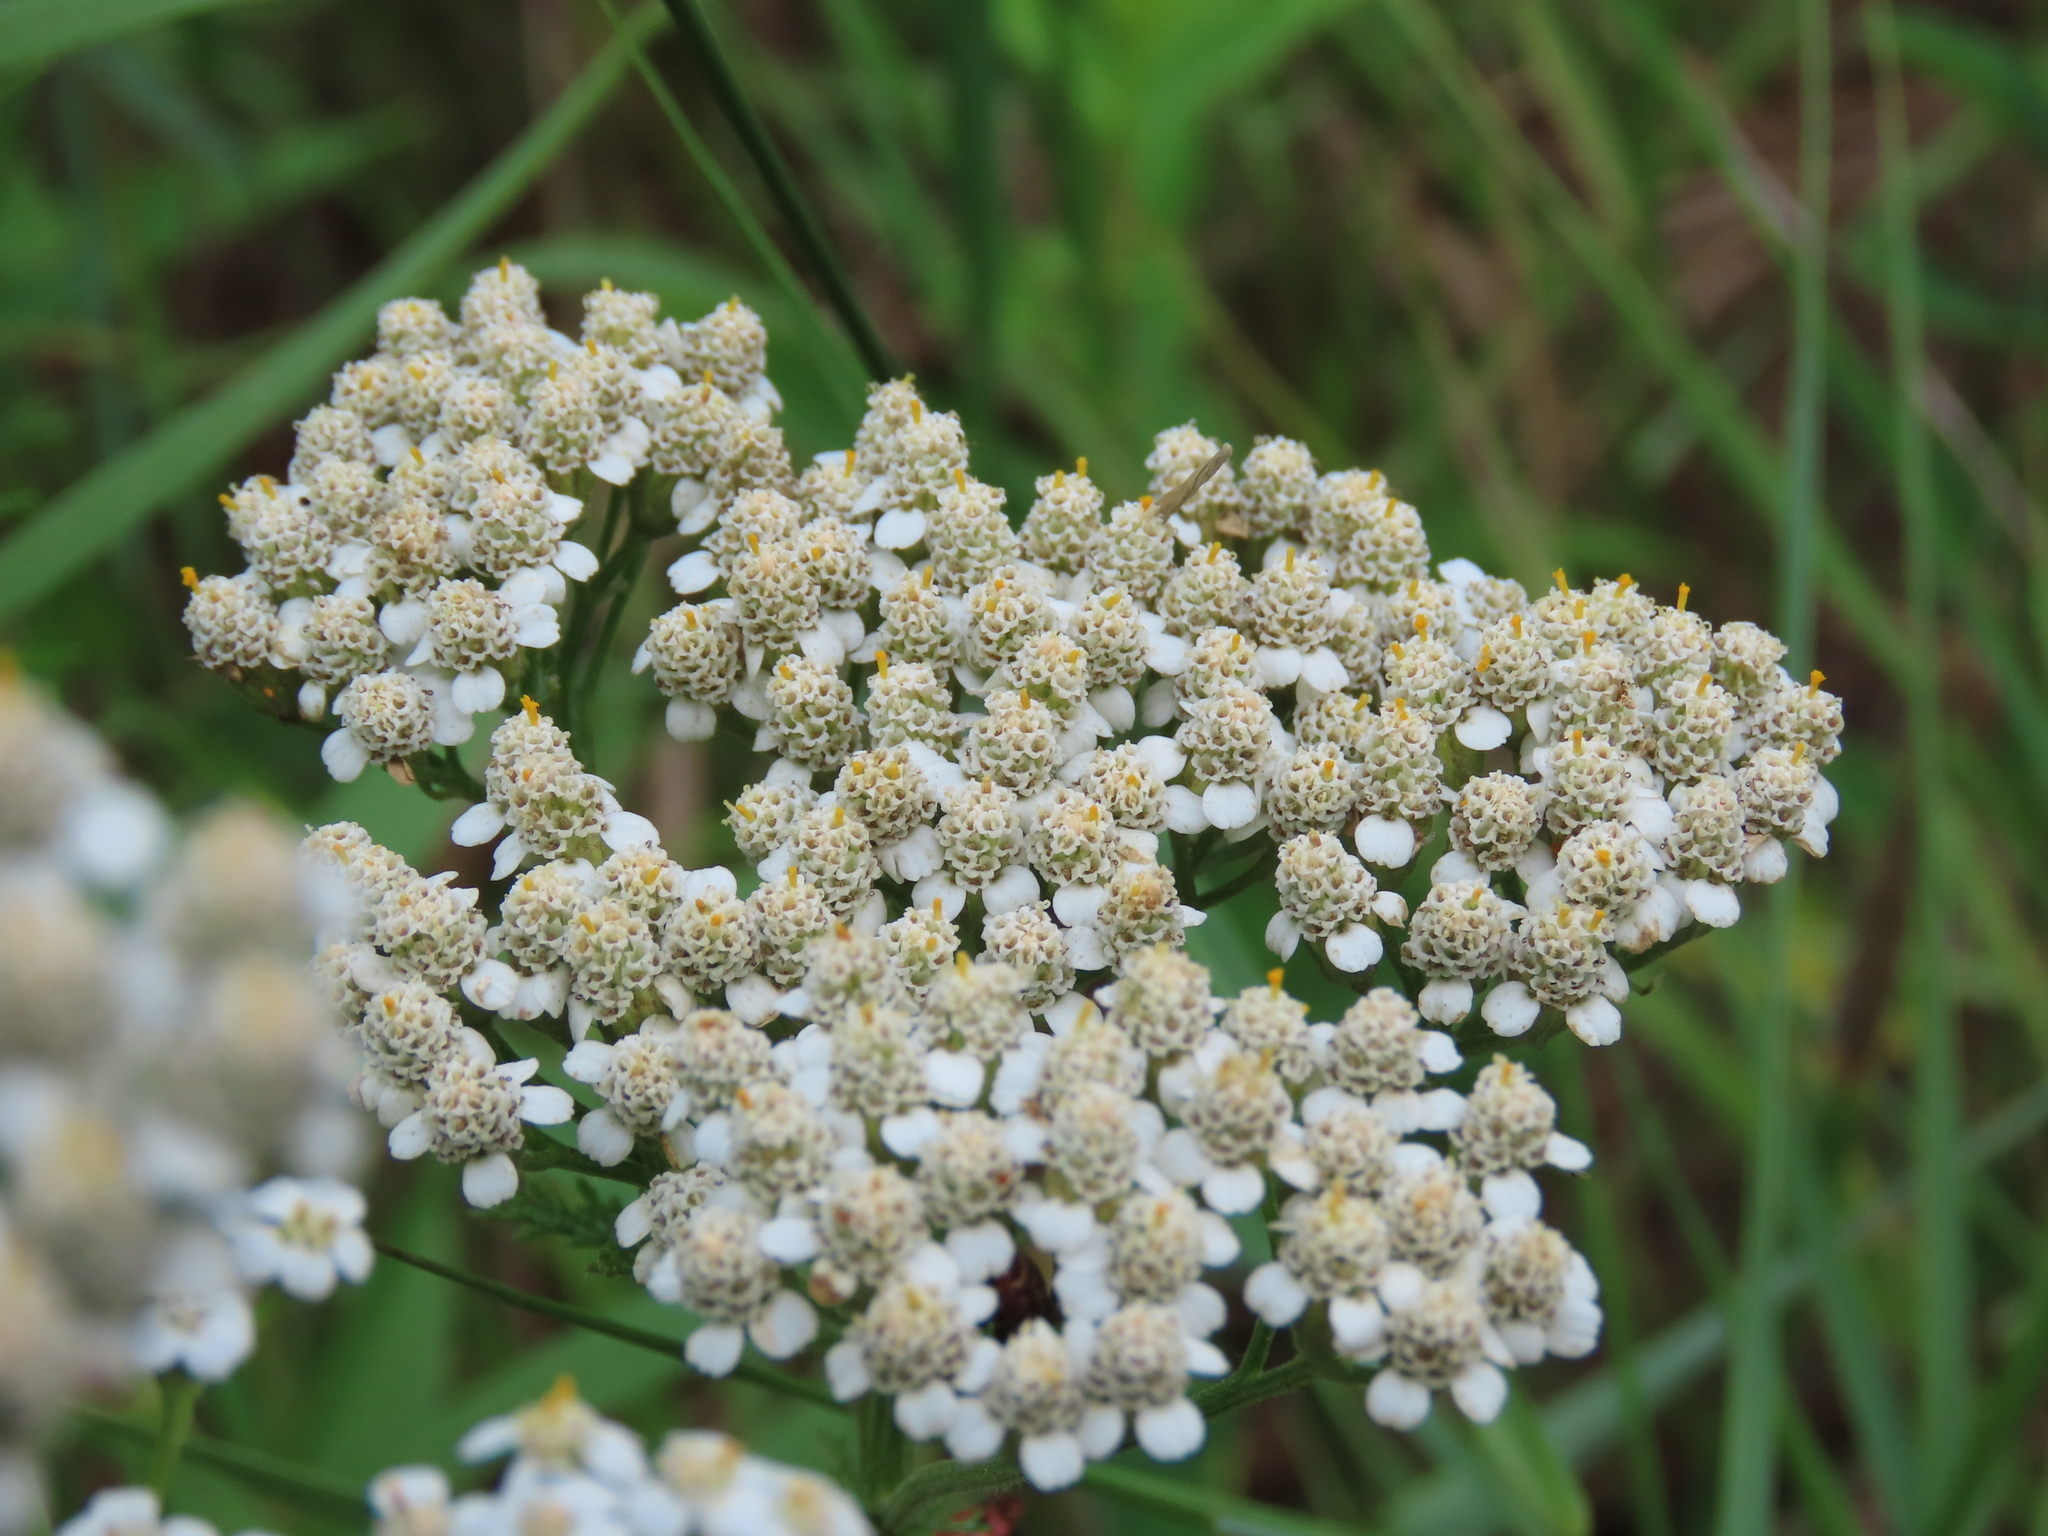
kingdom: Plantae
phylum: Tracheophyta
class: Magnoliopsida
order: Asterales
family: Asteraceae
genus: Achillea
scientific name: Achillea millefolium
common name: Yarrow
